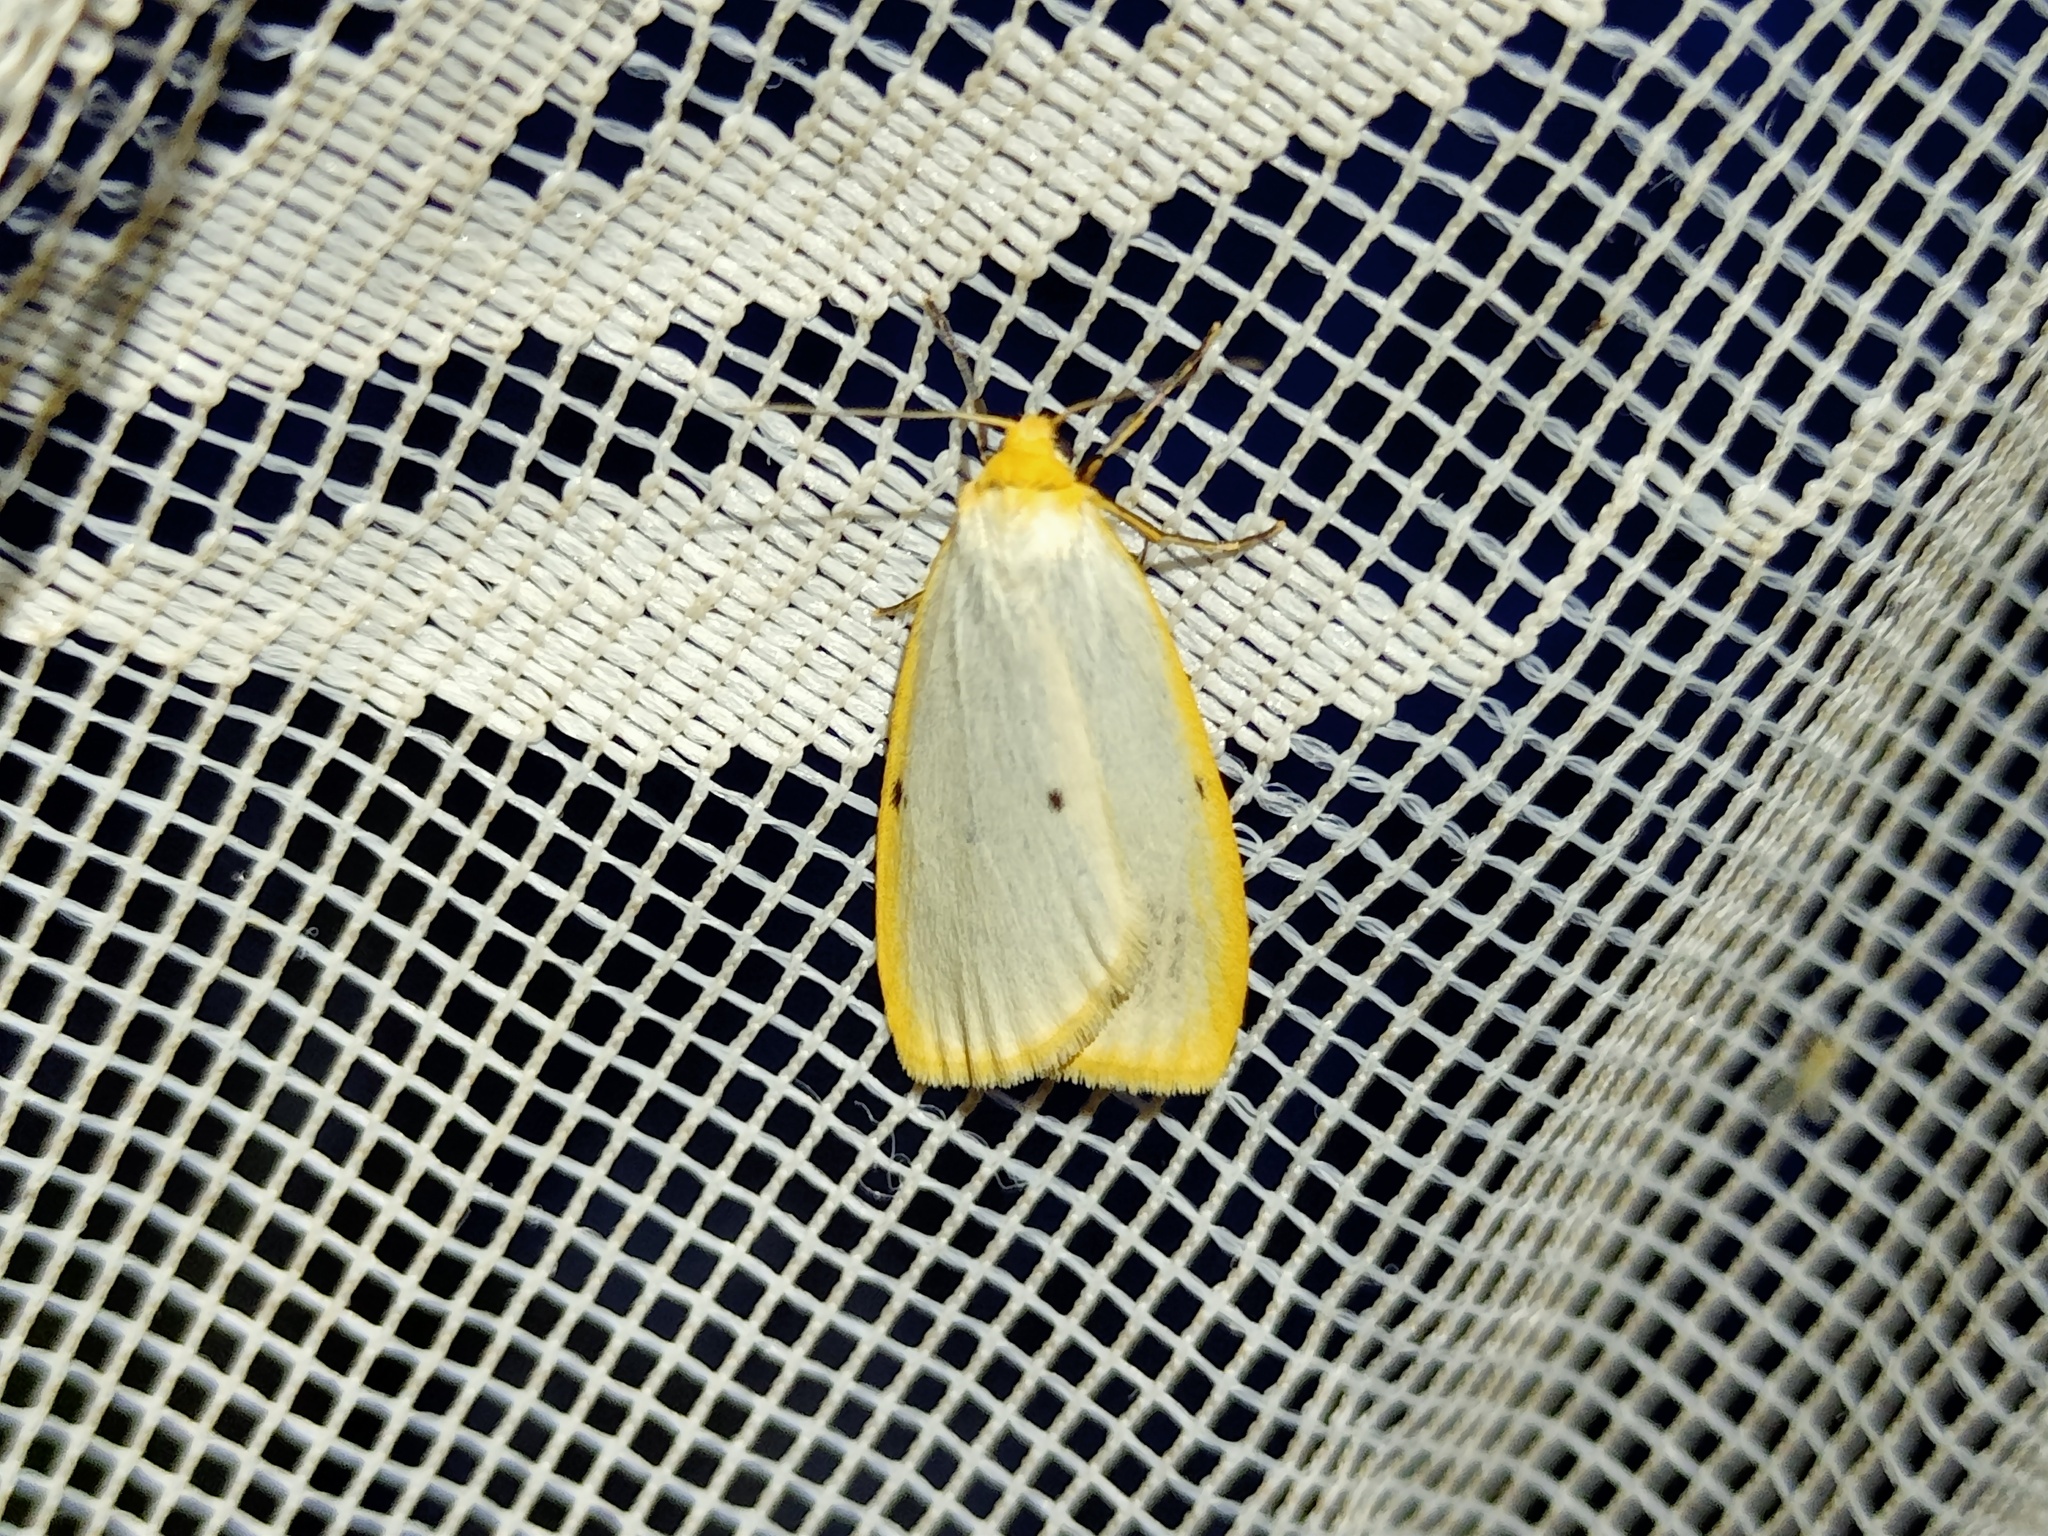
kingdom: Animalia
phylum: Arthropoda
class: Insecta
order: Lepidoptera
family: Erebidae
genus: Cybosia
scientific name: Cybosia mesomella
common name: Four-dotted footman
